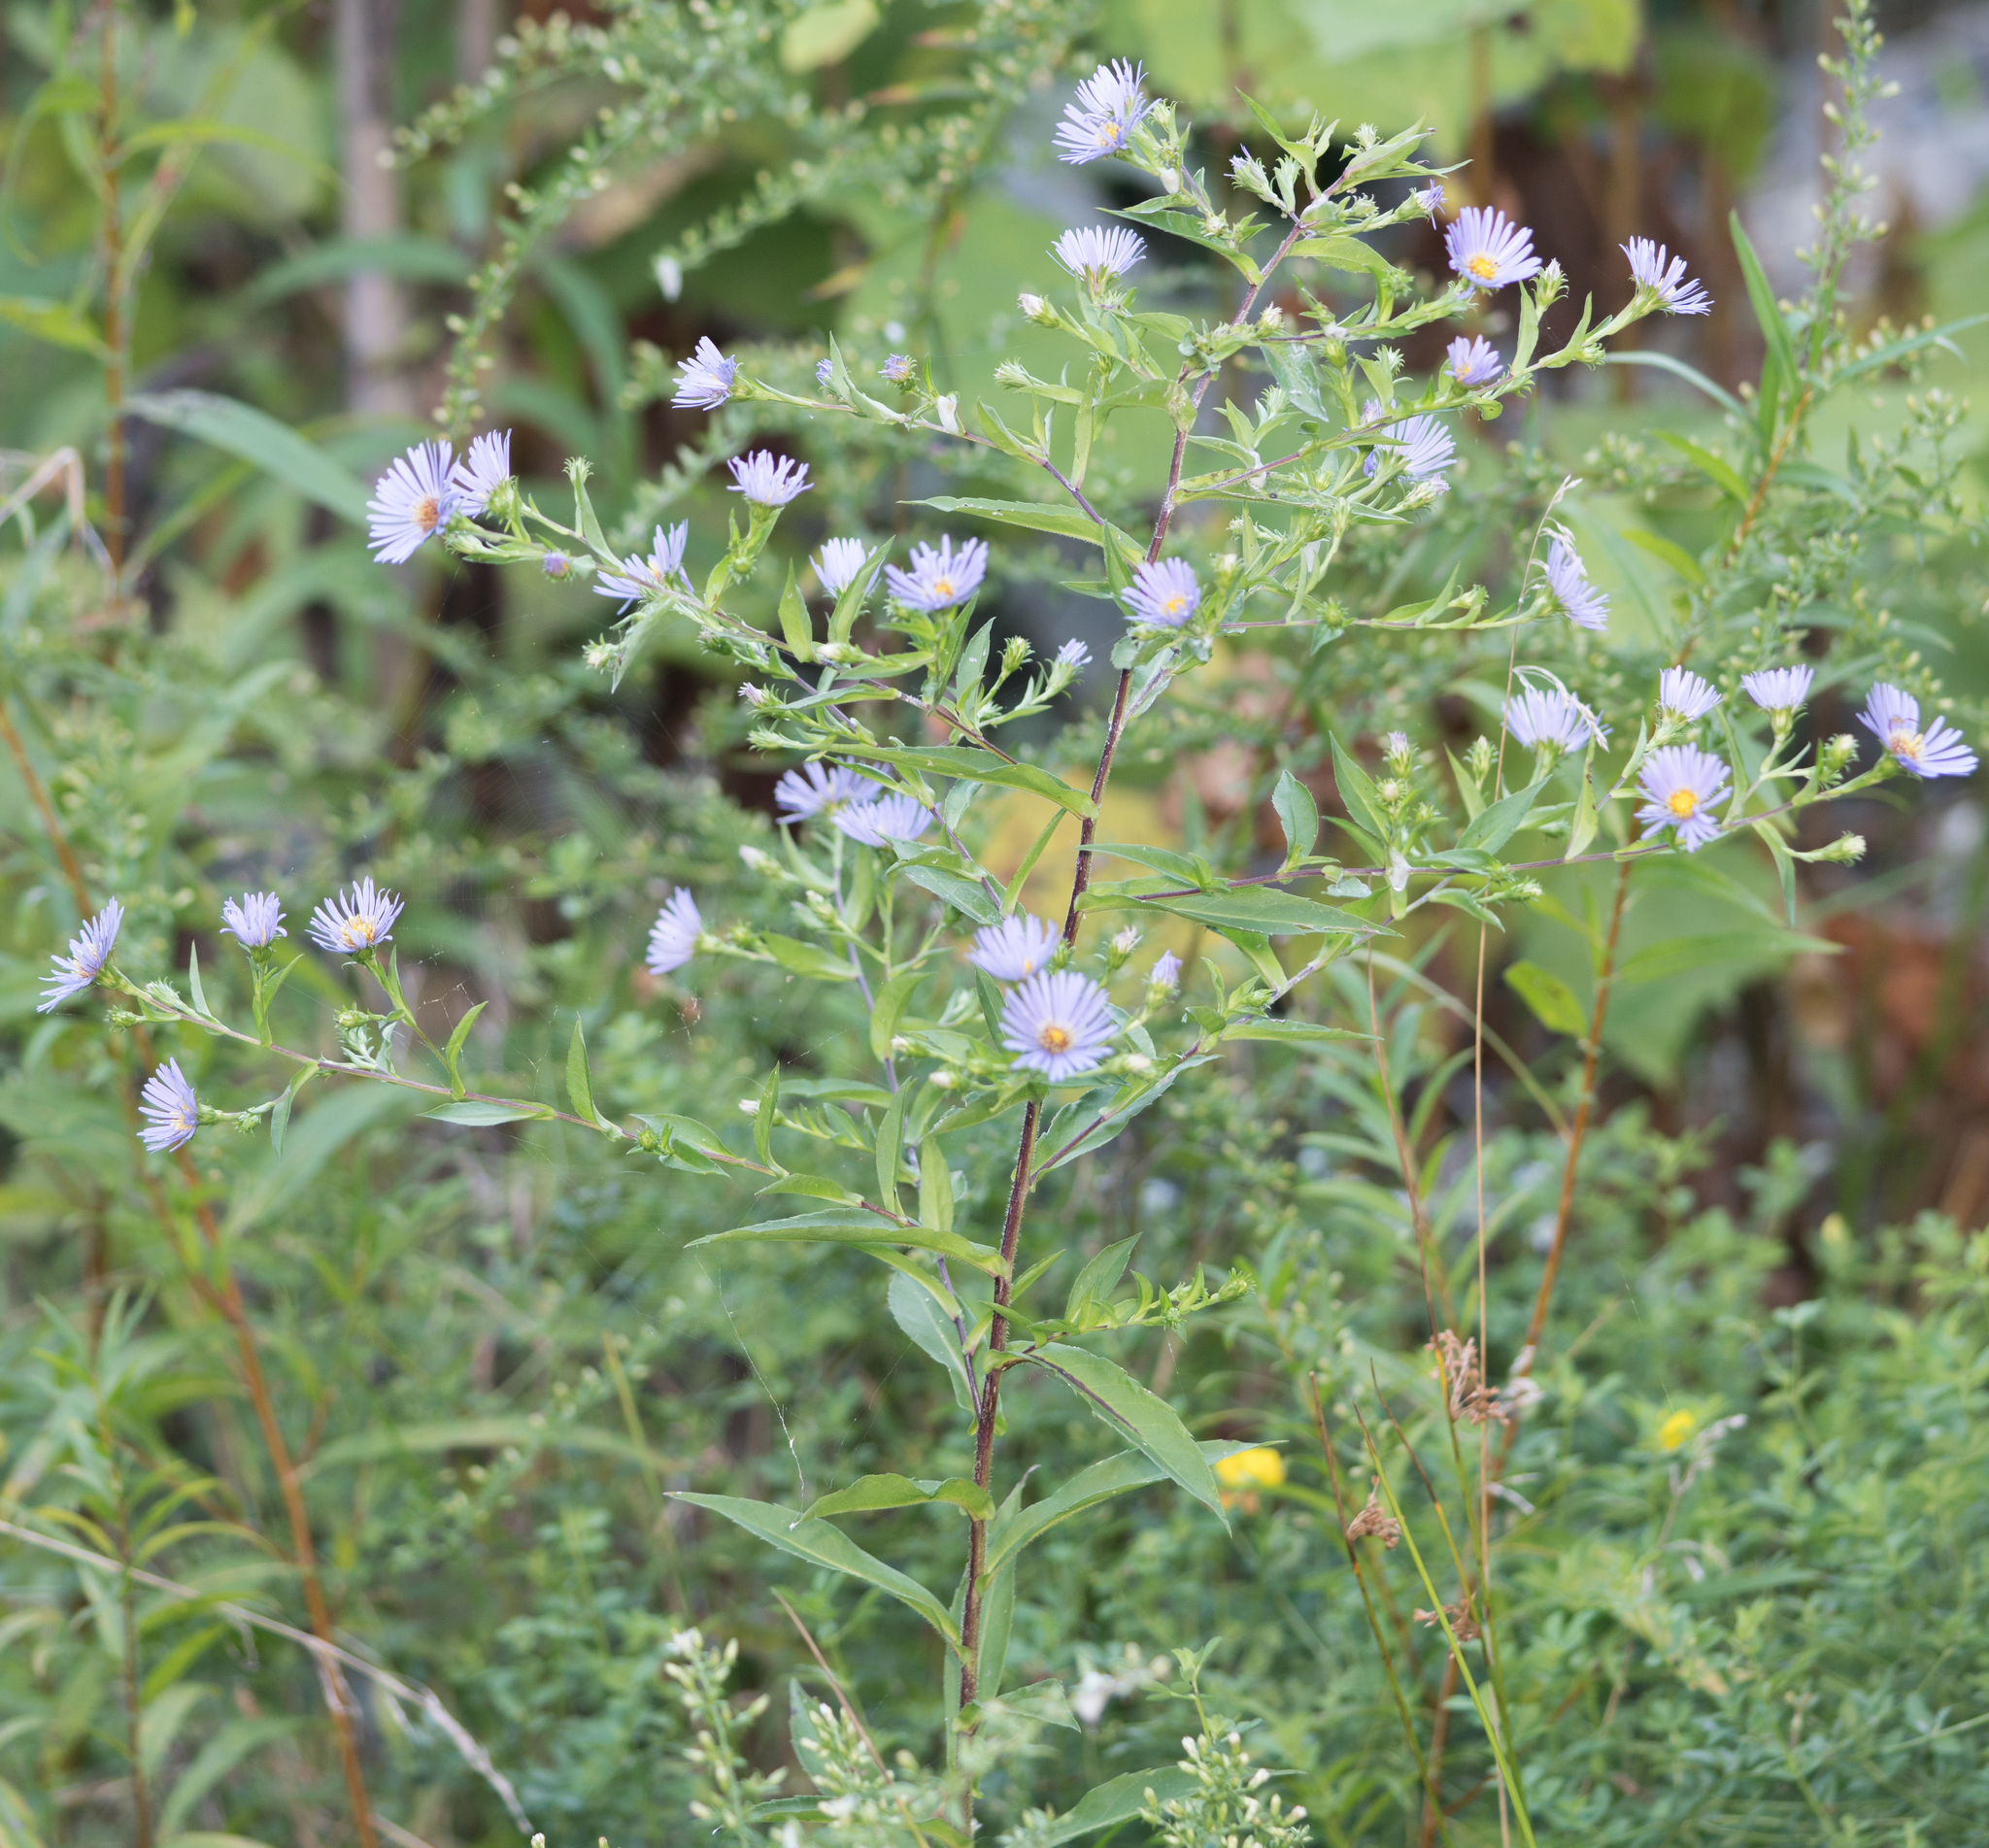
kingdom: Plantae
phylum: Tracheophyta
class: Magnoliopsida
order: Asterales
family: Asteraceae
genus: Symphyotrichum
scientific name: Symphyotrichum puniceum
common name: Bog aster
